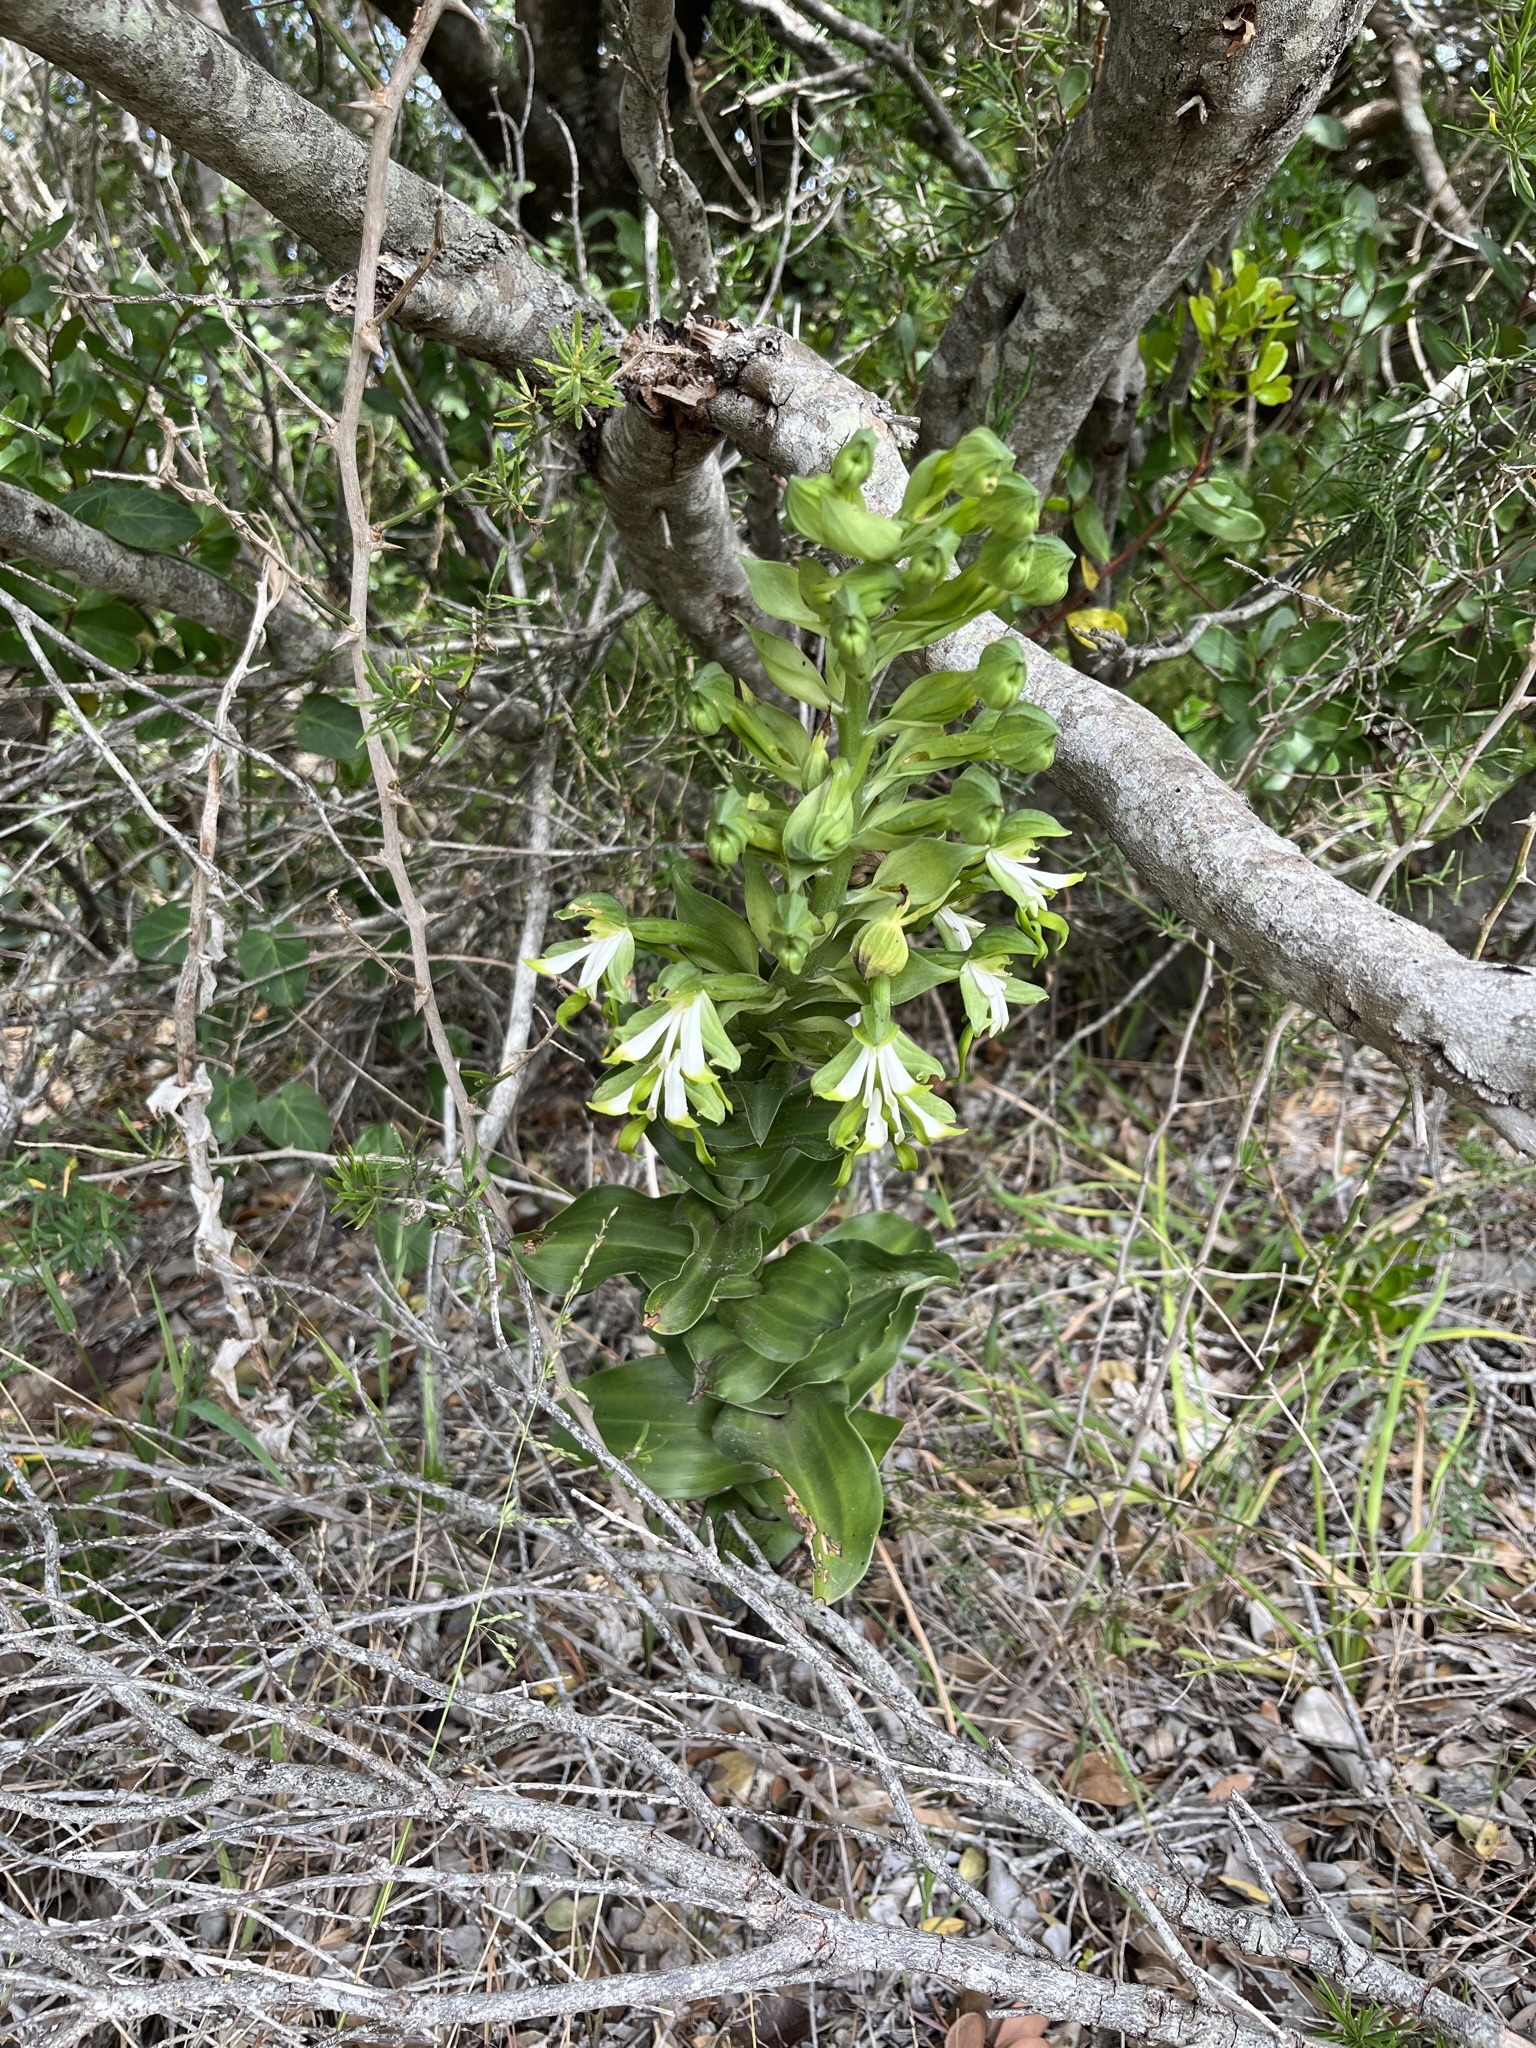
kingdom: Plantae
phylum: Tracheophyta
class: Liliopsida
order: Asparagales
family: Orchidaceae
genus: Bonatea
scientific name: Bonatea speciosa
